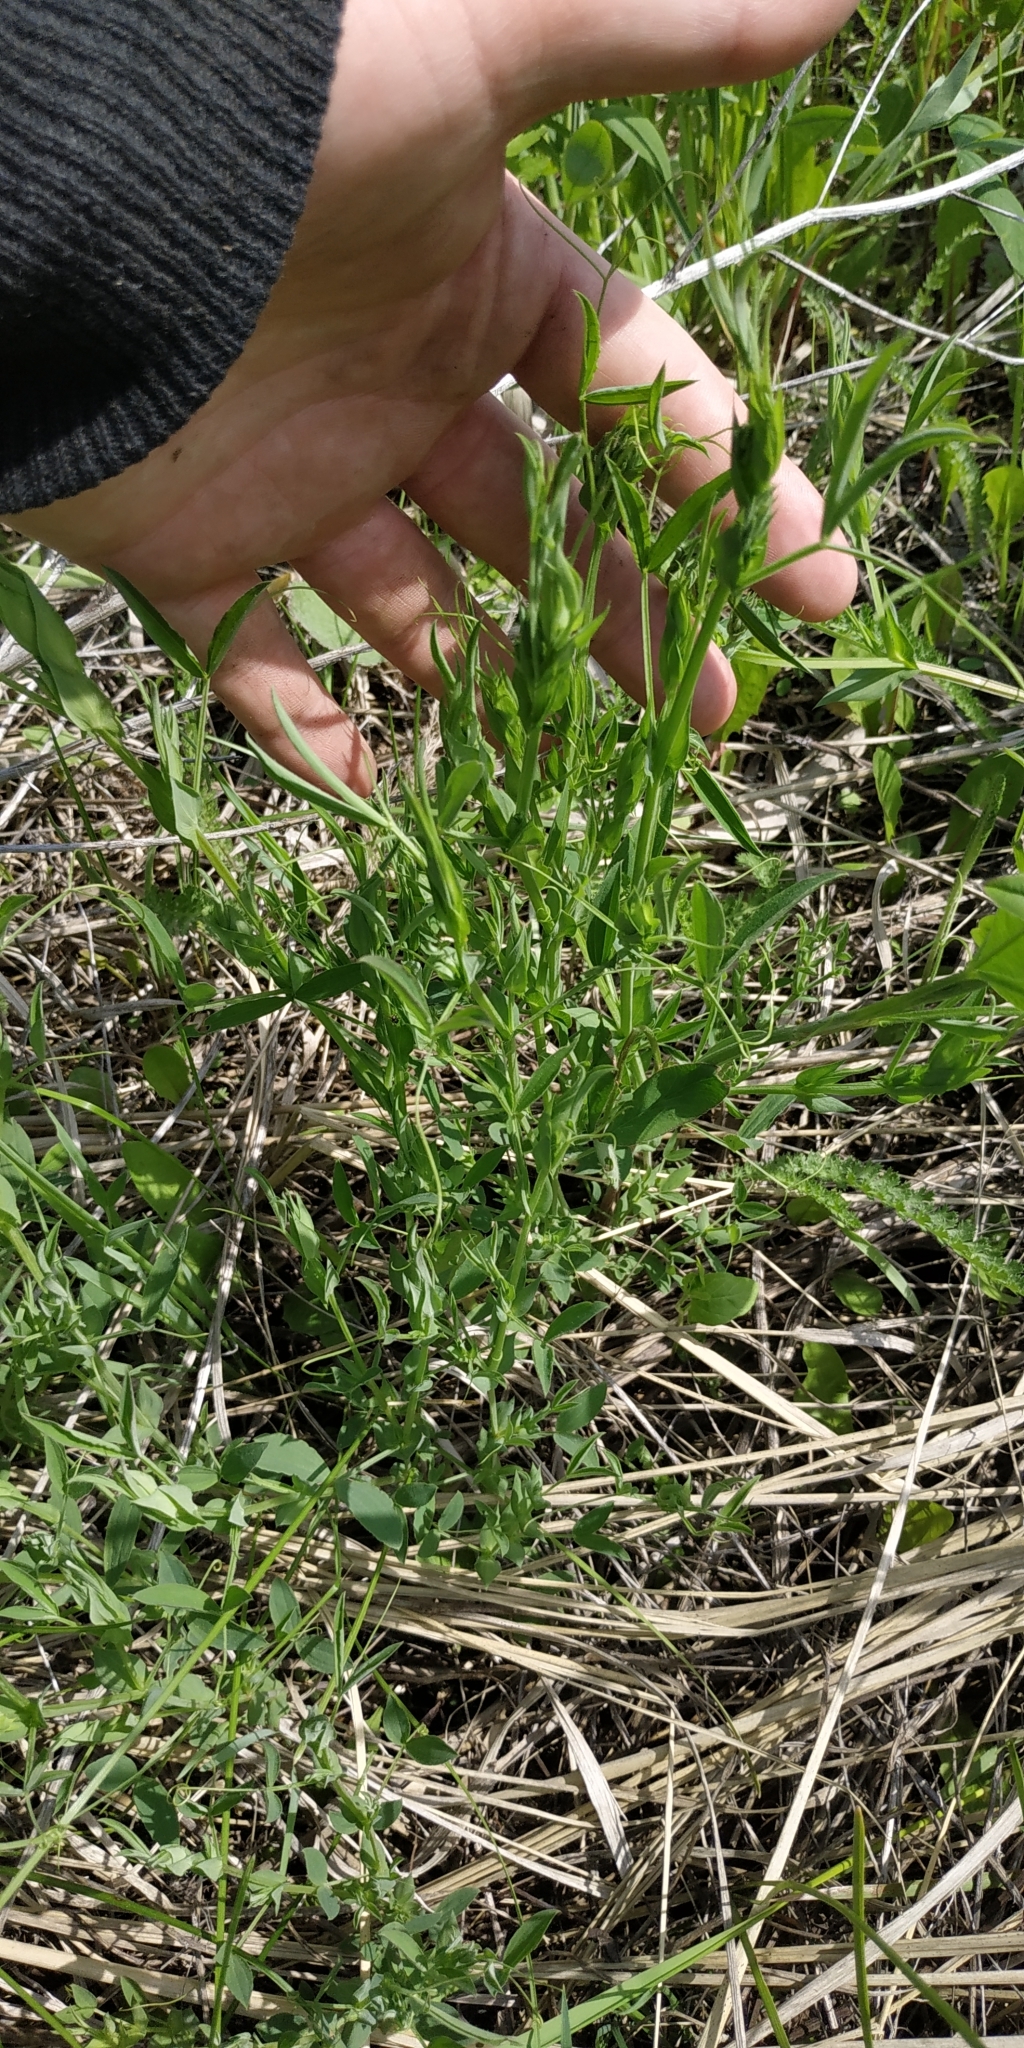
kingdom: Plantae
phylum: Tracheophyta
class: Magnoliopsida
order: Fabales
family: Fabaceae
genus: Lathyrus
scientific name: Lathyrus pratensis
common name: Meadow vetchling
